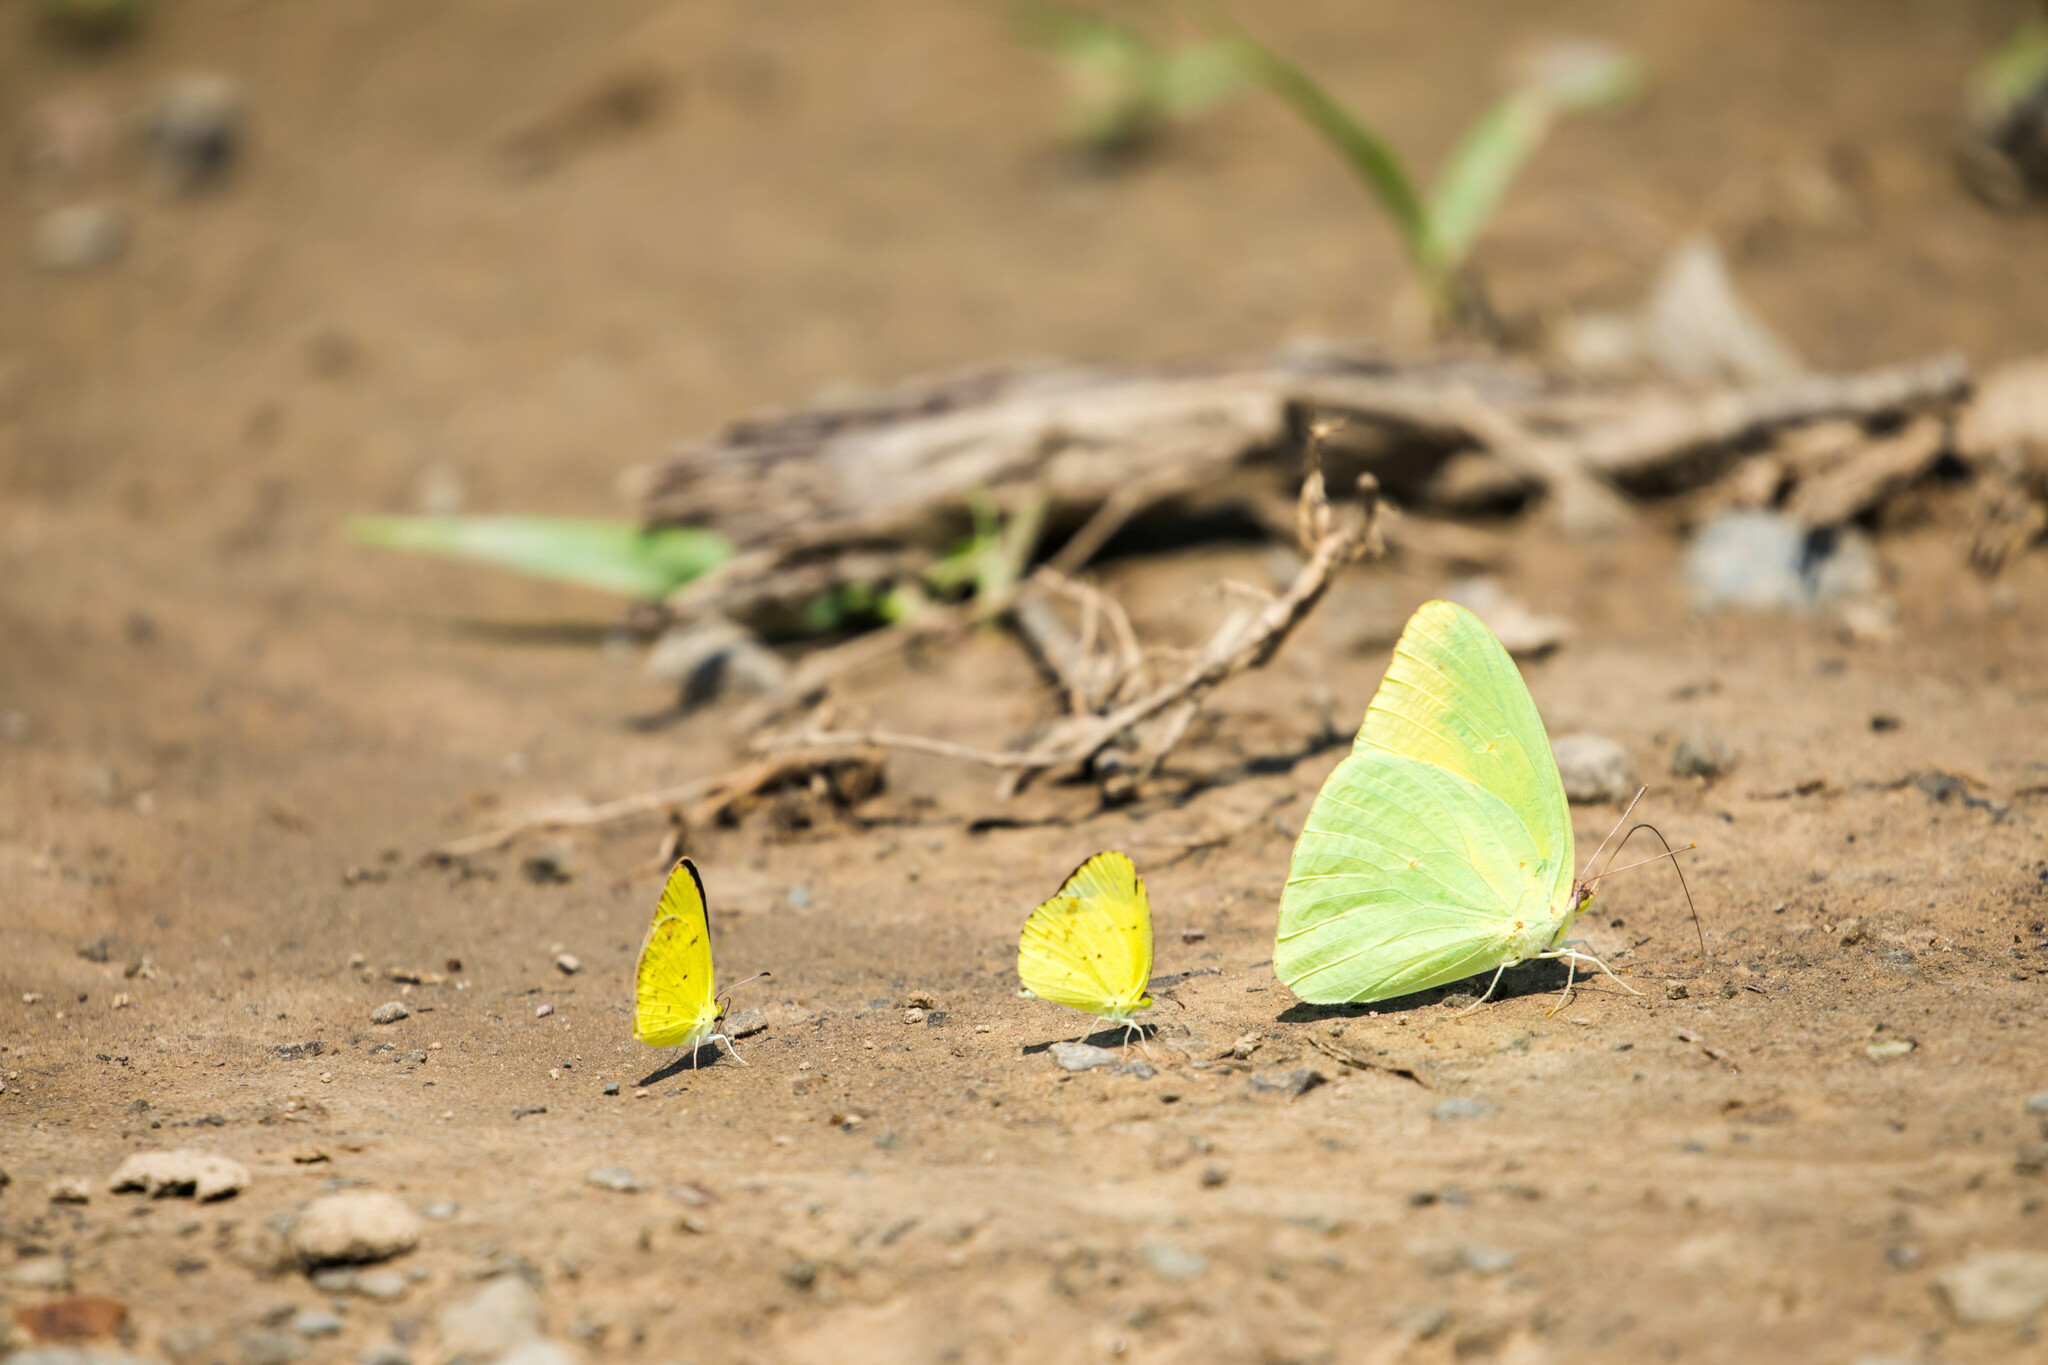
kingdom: Animalia
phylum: Arthropoda
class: Insecta
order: Lepidoptera
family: Pieridae
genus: Phoebis
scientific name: Phoebis sennae
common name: Cloudless sulphur
